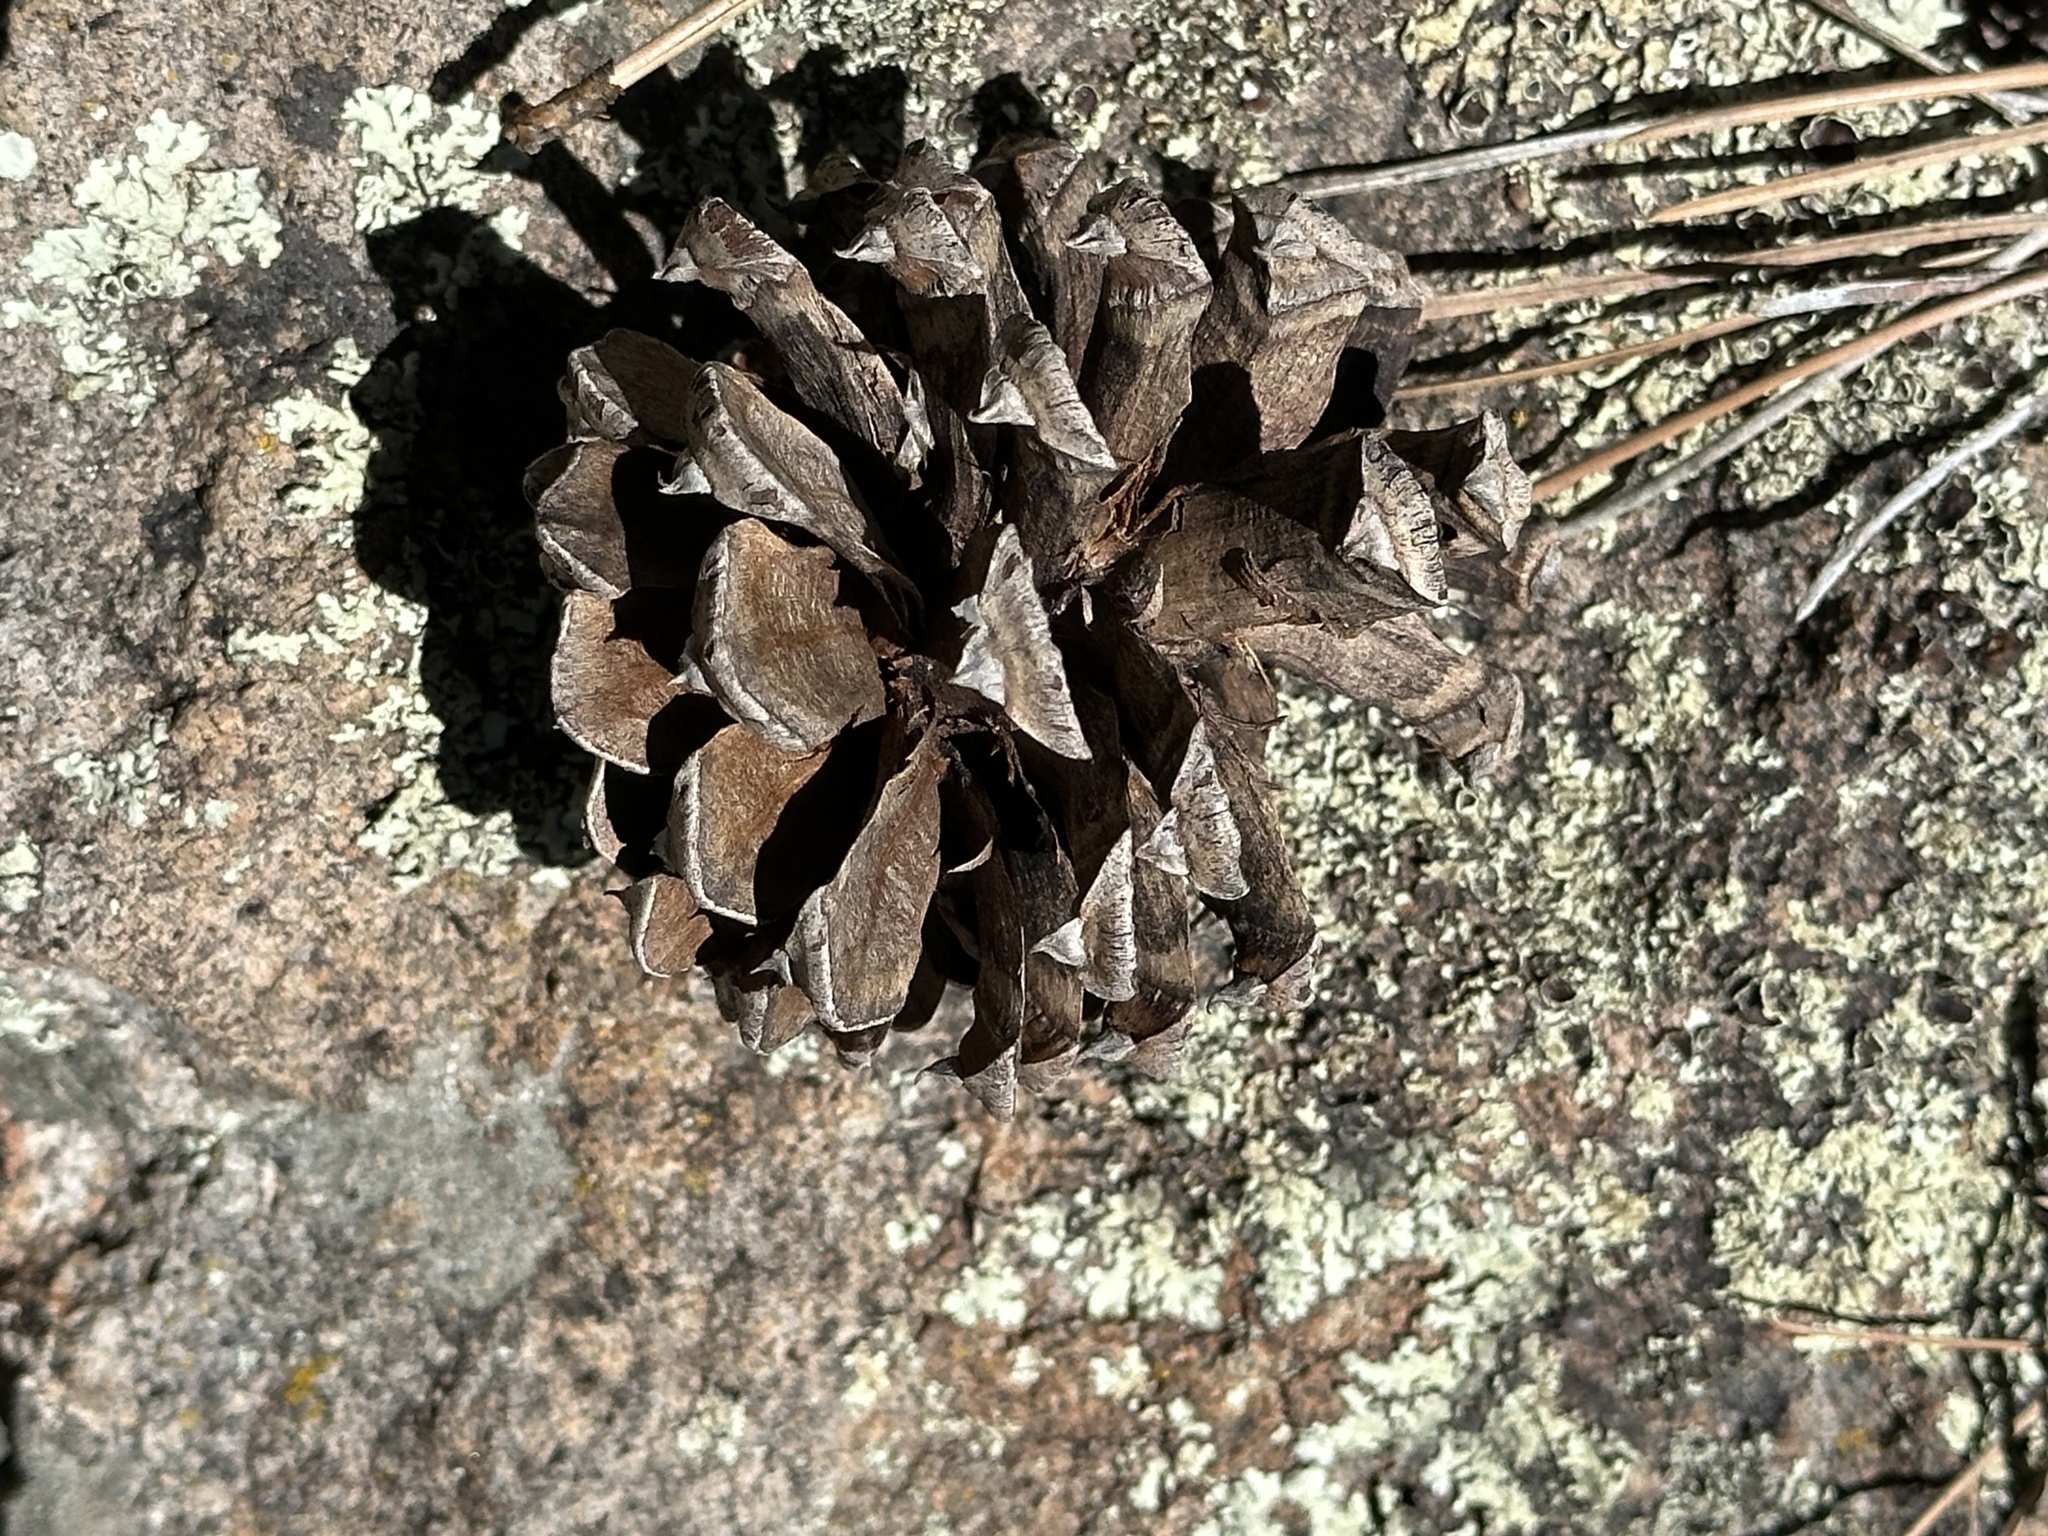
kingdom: Plantae
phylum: Tracheophyta
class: Pinopsida
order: Pinales
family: Pinaceae
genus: Pinus
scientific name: Pinus ponderosa
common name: Western yellow-pine
